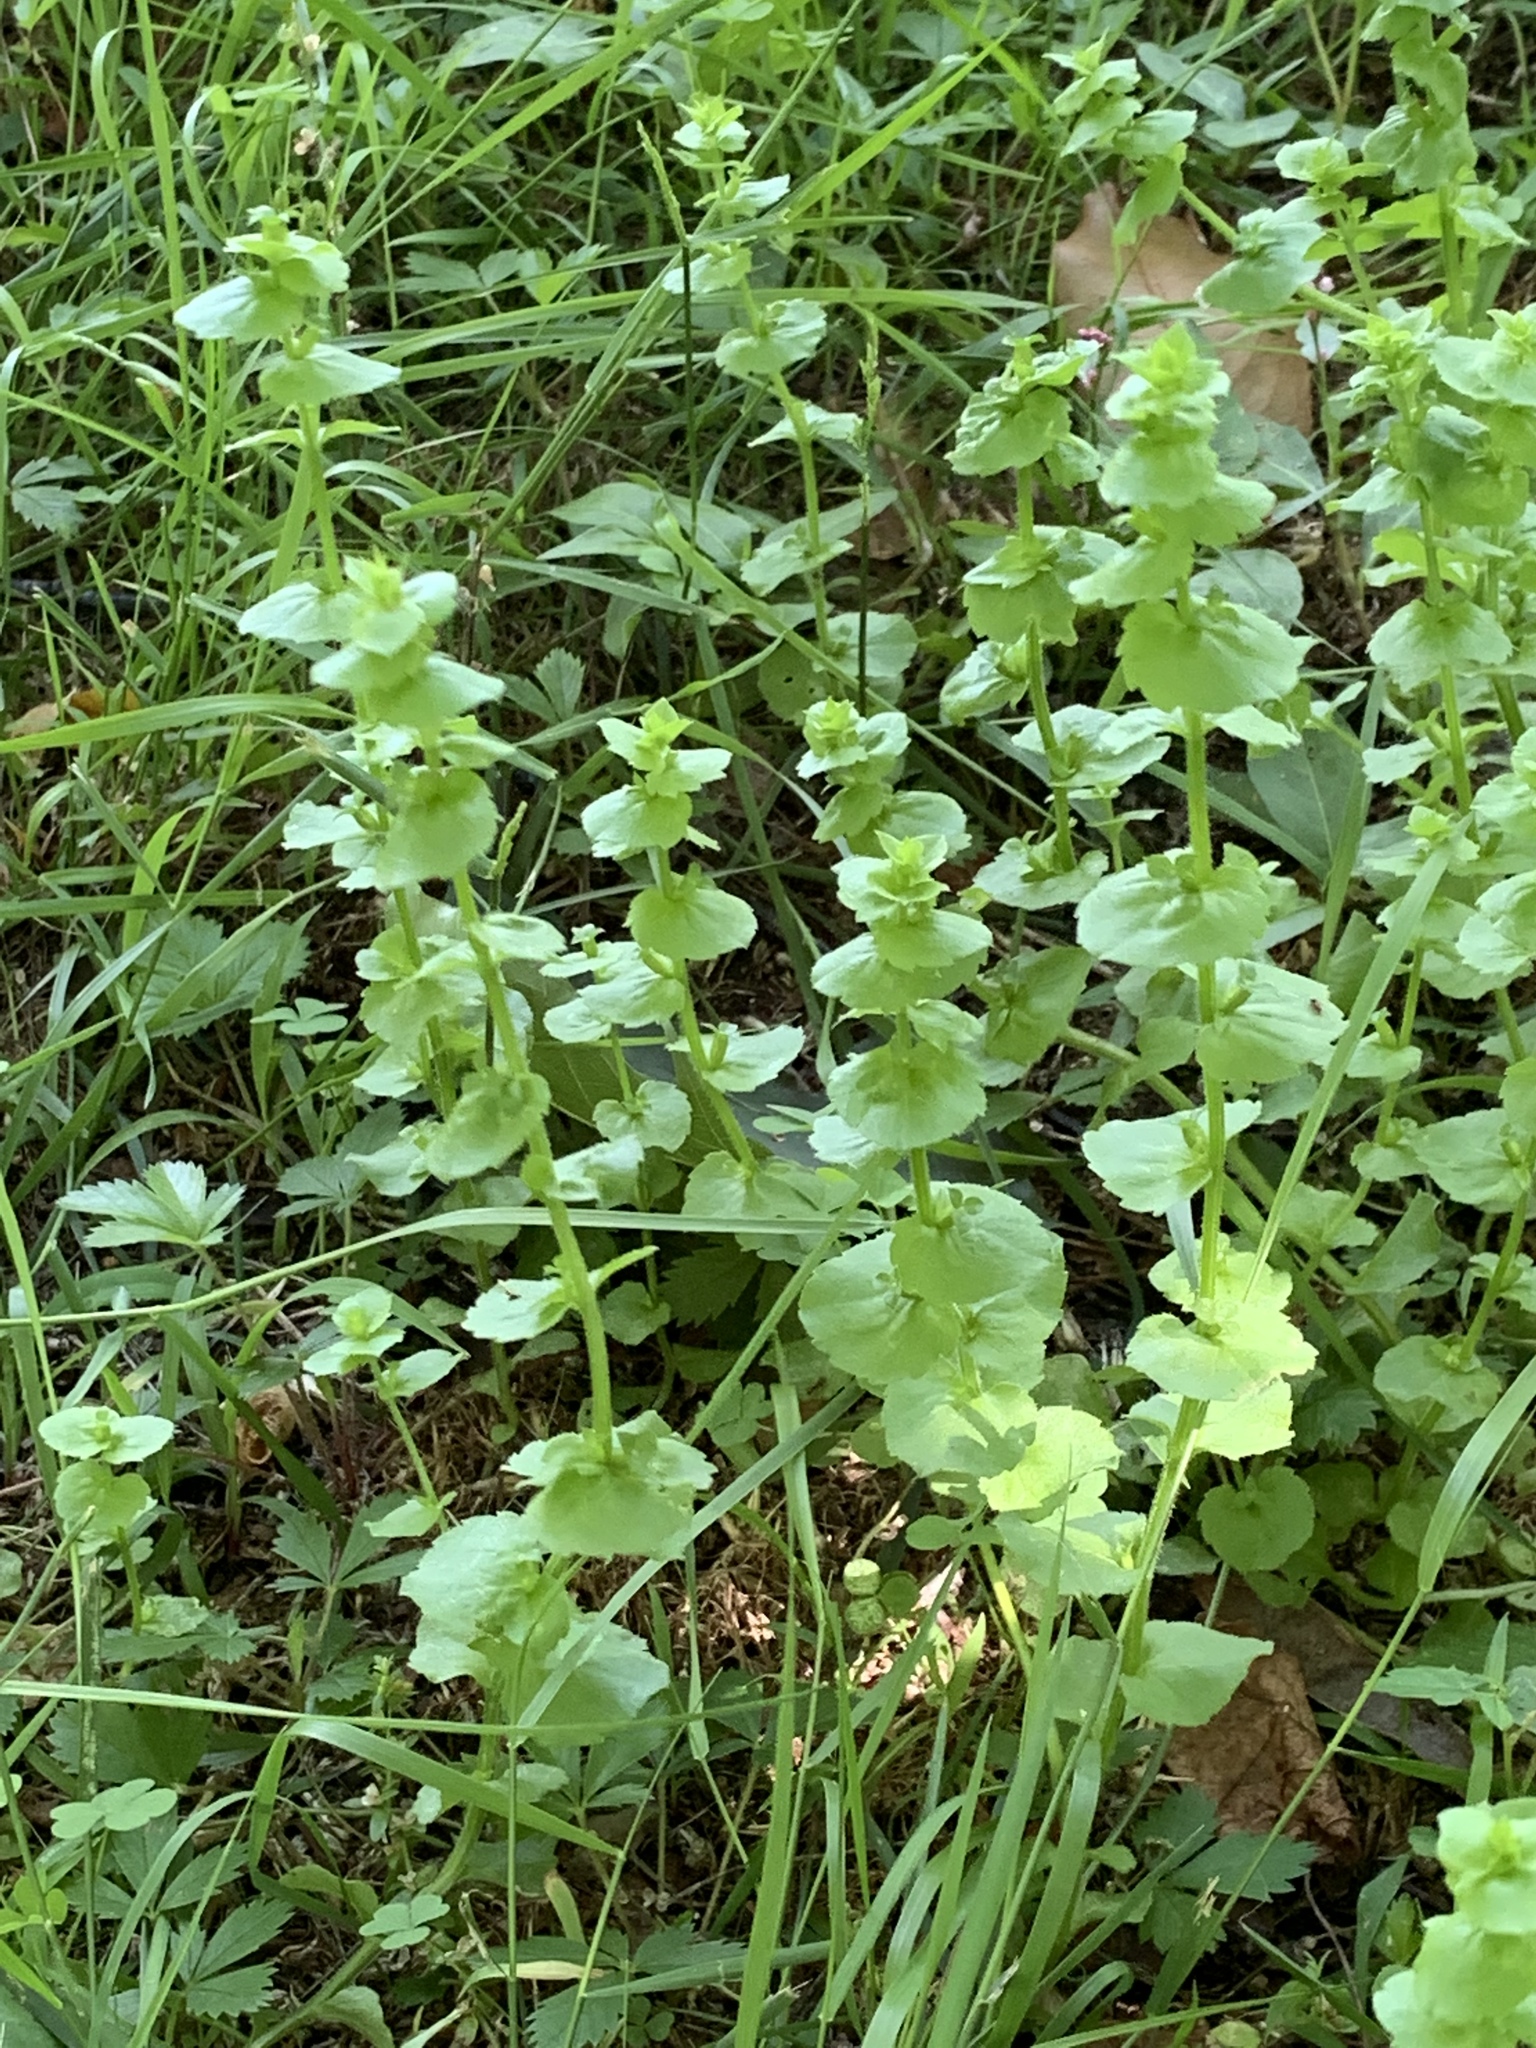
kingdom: Plantae
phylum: Tracheophyta
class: Magnoliopsida
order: Asterales
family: Campanulaceae
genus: Triodanis
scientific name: Triodanis perfoliata
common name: Clasping venus' looking-glass
